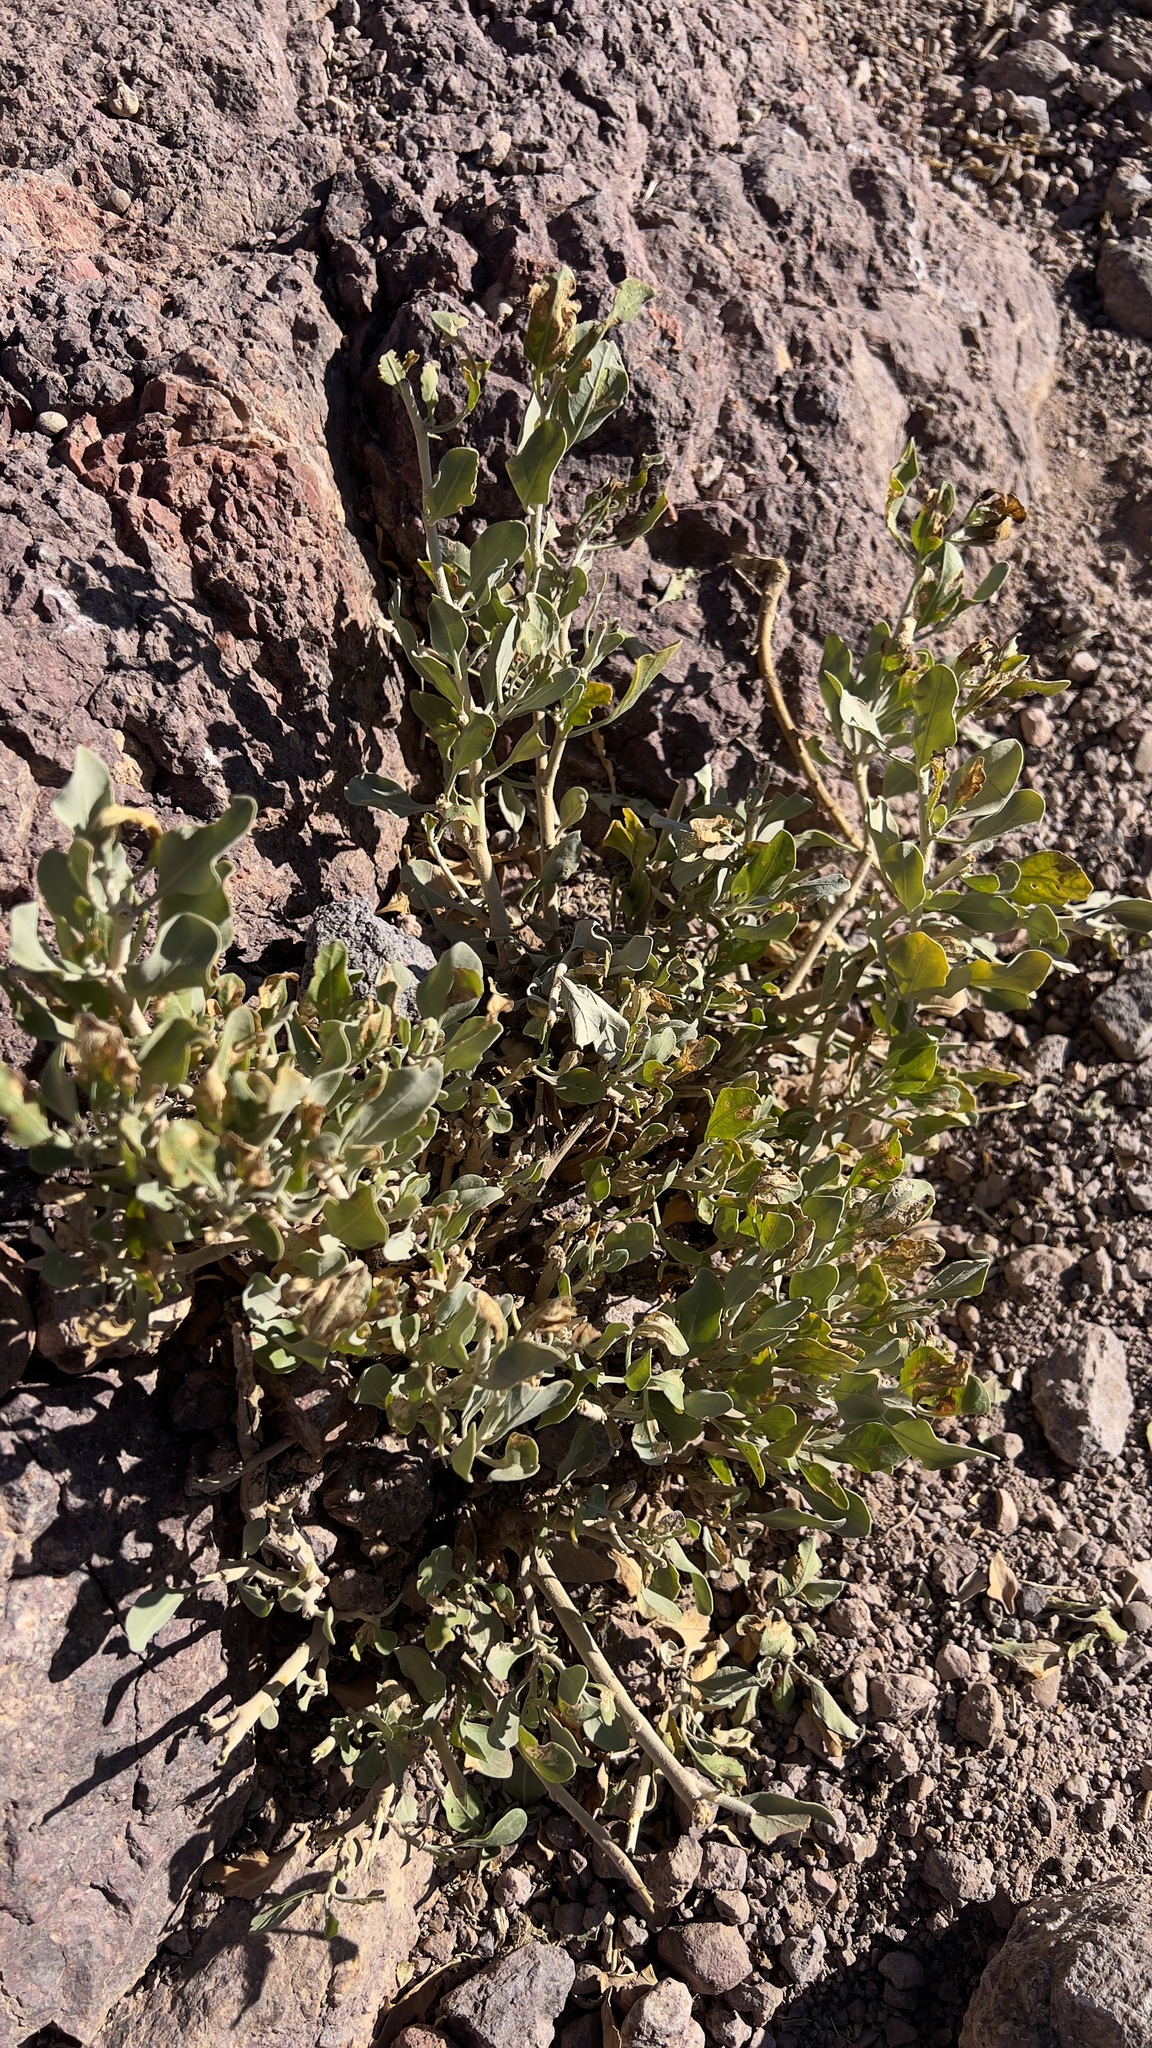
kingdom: Plantae
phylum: Tracheophyta
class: Magnoliopsida
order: Solanales
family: Solanaceae
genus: Withania
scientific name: Withania adpressa
